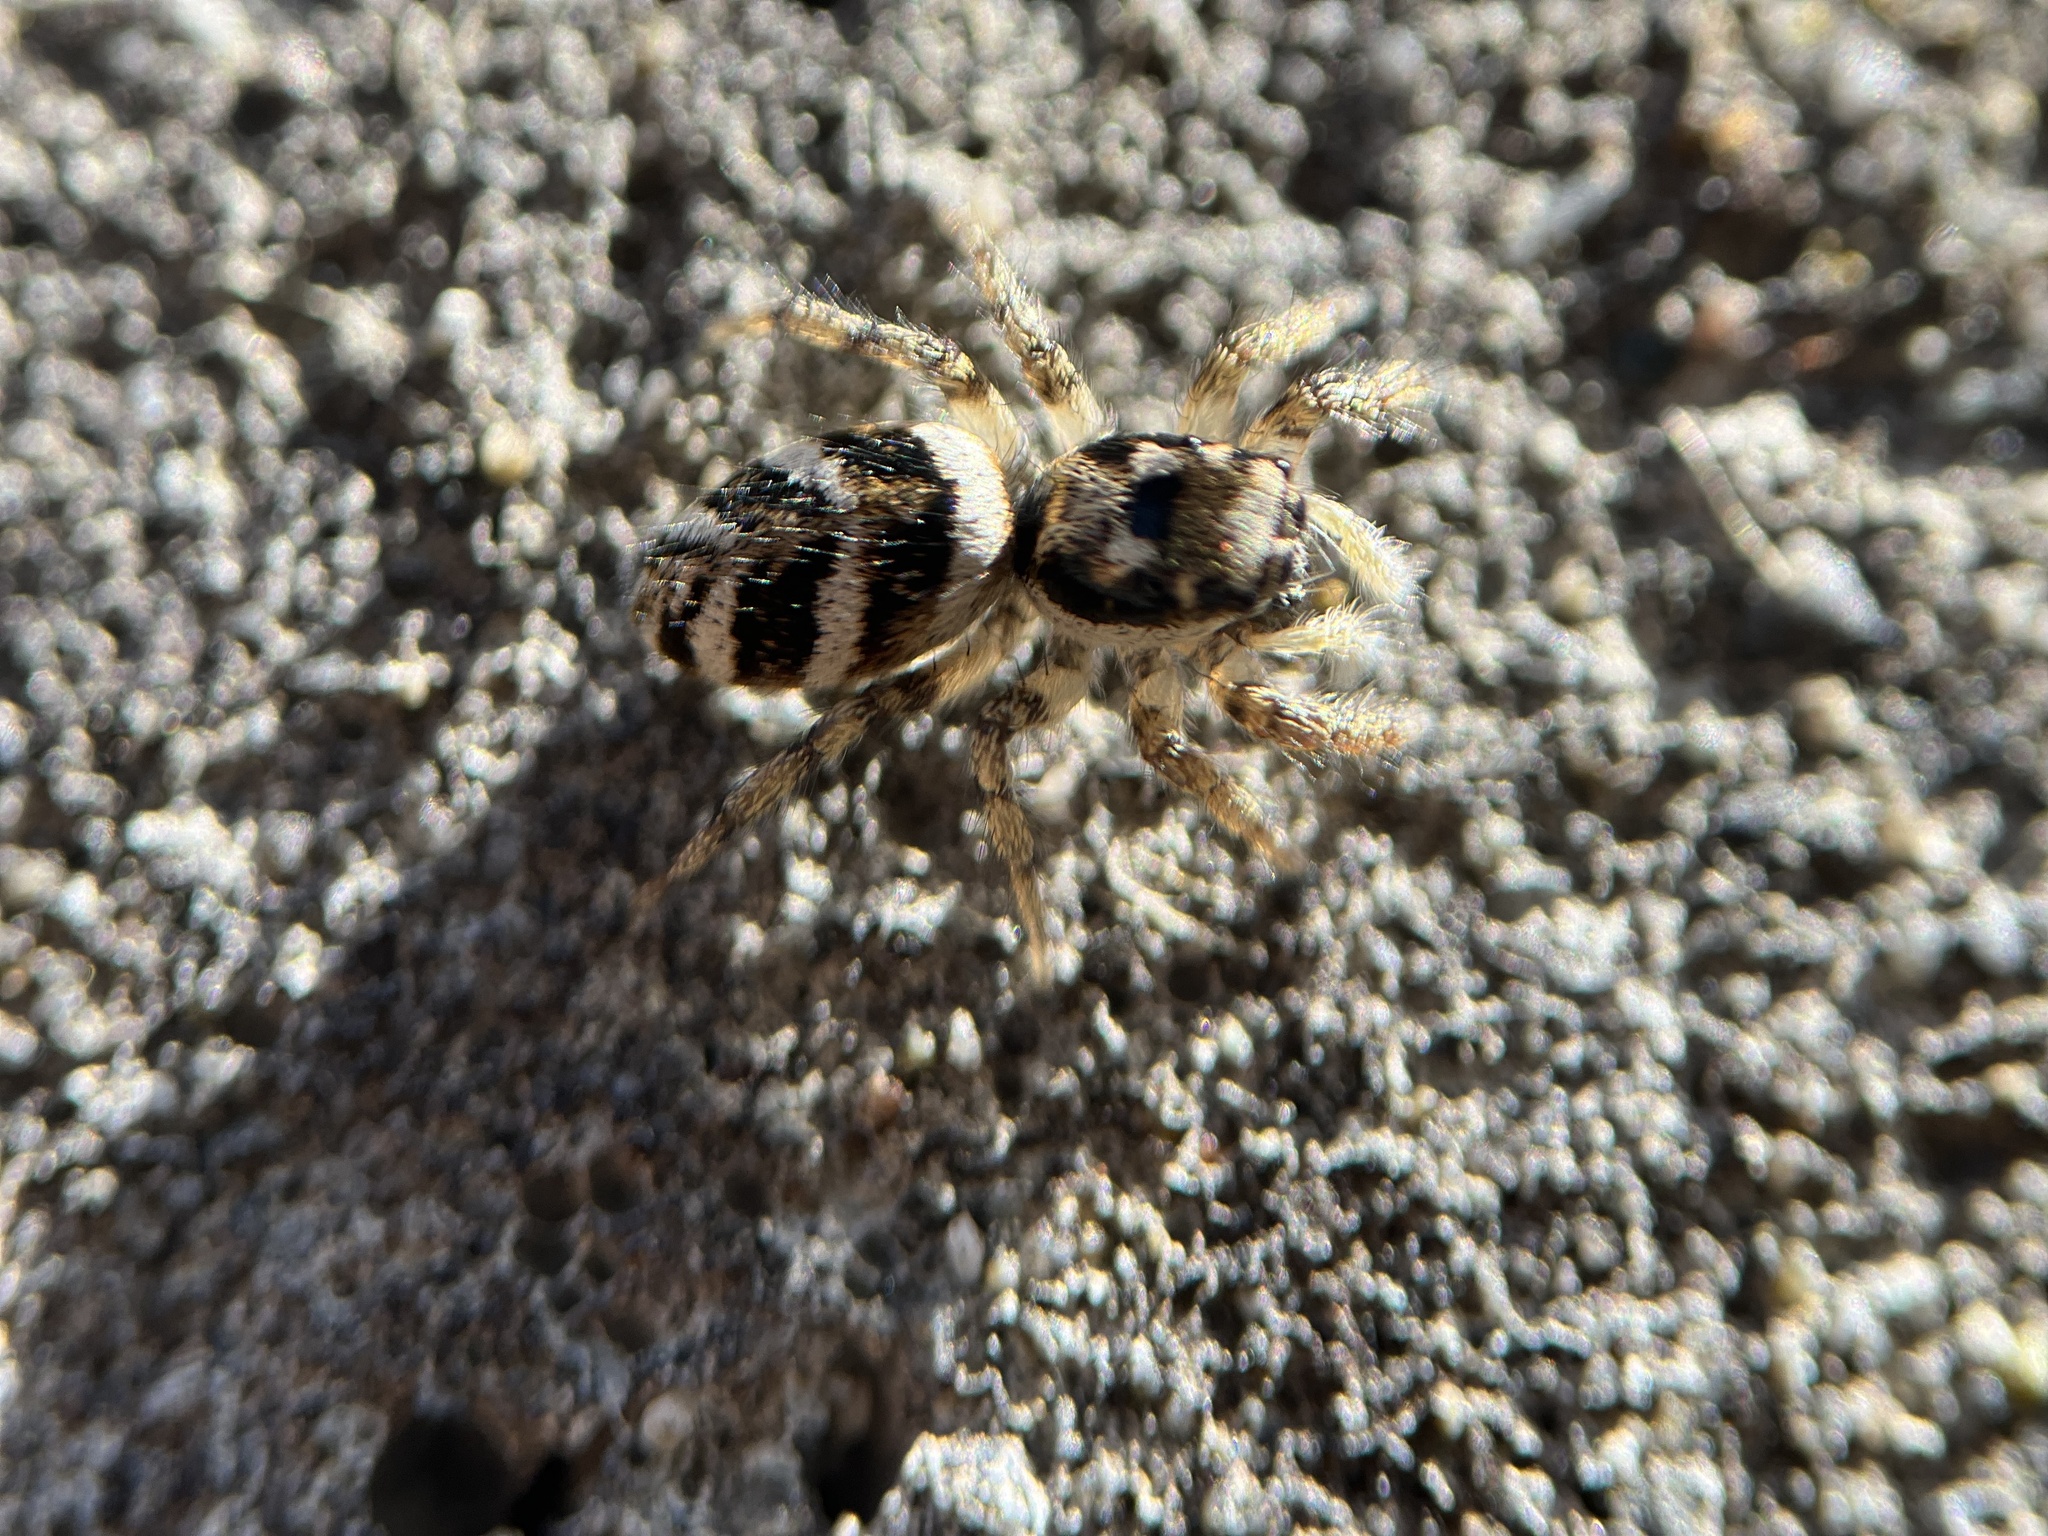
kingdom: Animalia
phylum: Arthropoda
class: Arachnida
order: Araneae
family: Salticidae
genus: Salticus
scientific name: Salticus scenicus
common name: Zebra jumper
